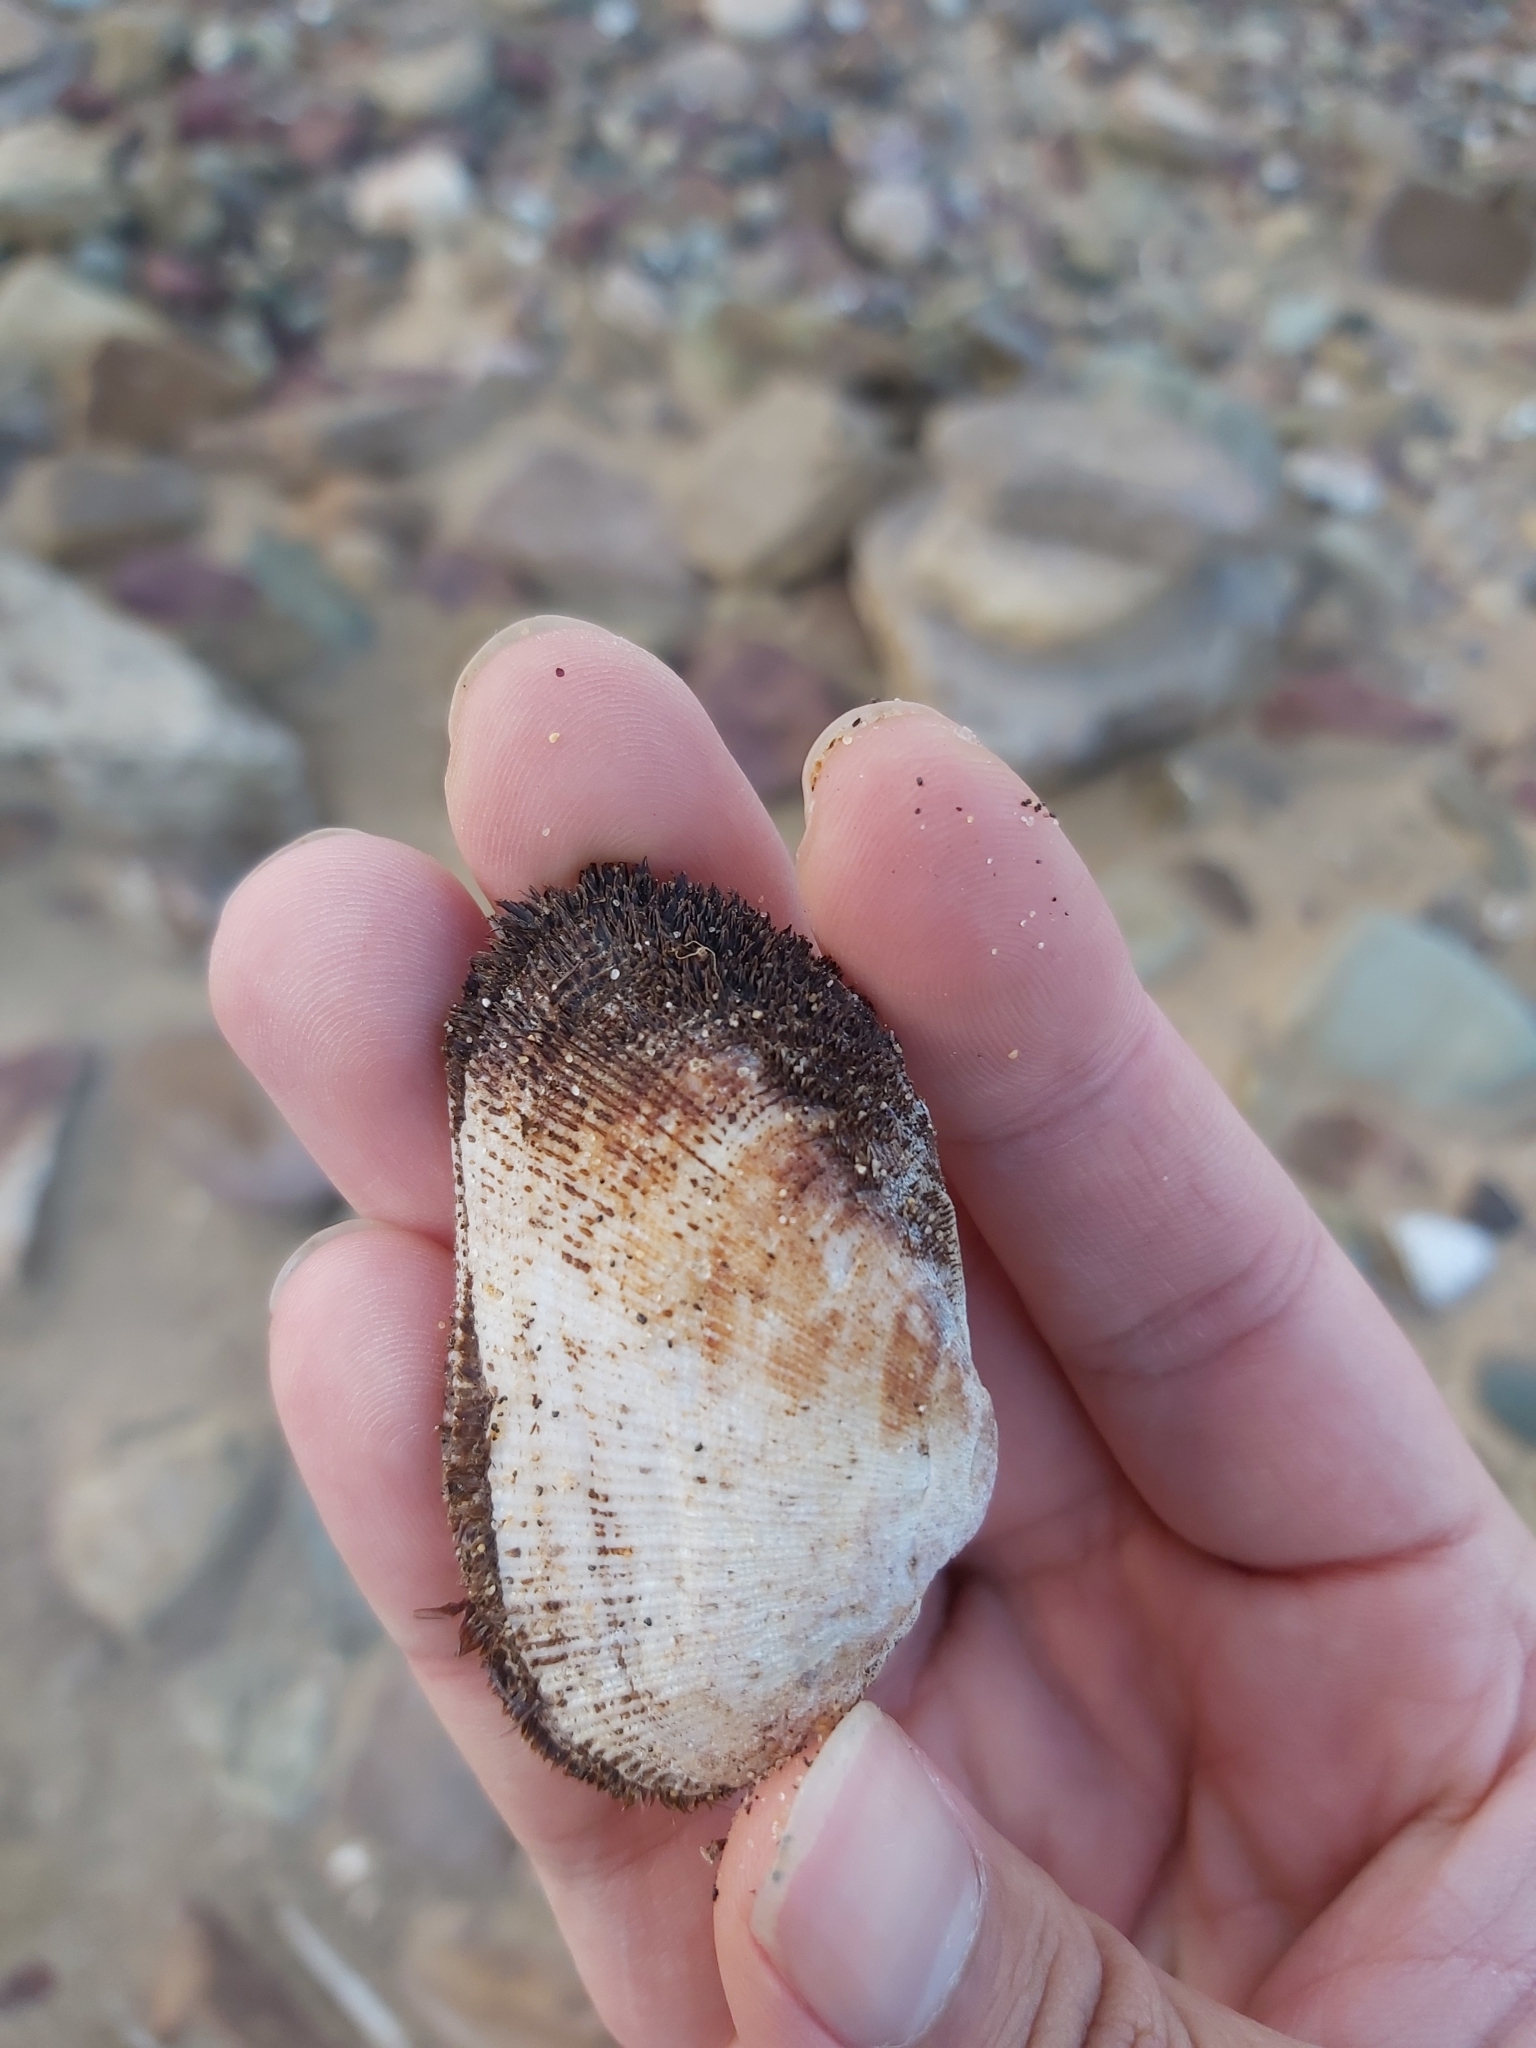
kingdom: Animalia
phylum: Mollusca
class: Bivalvia
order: Arcida
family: Arcidae
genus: Barbatia
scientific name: Barbatia pistachia
